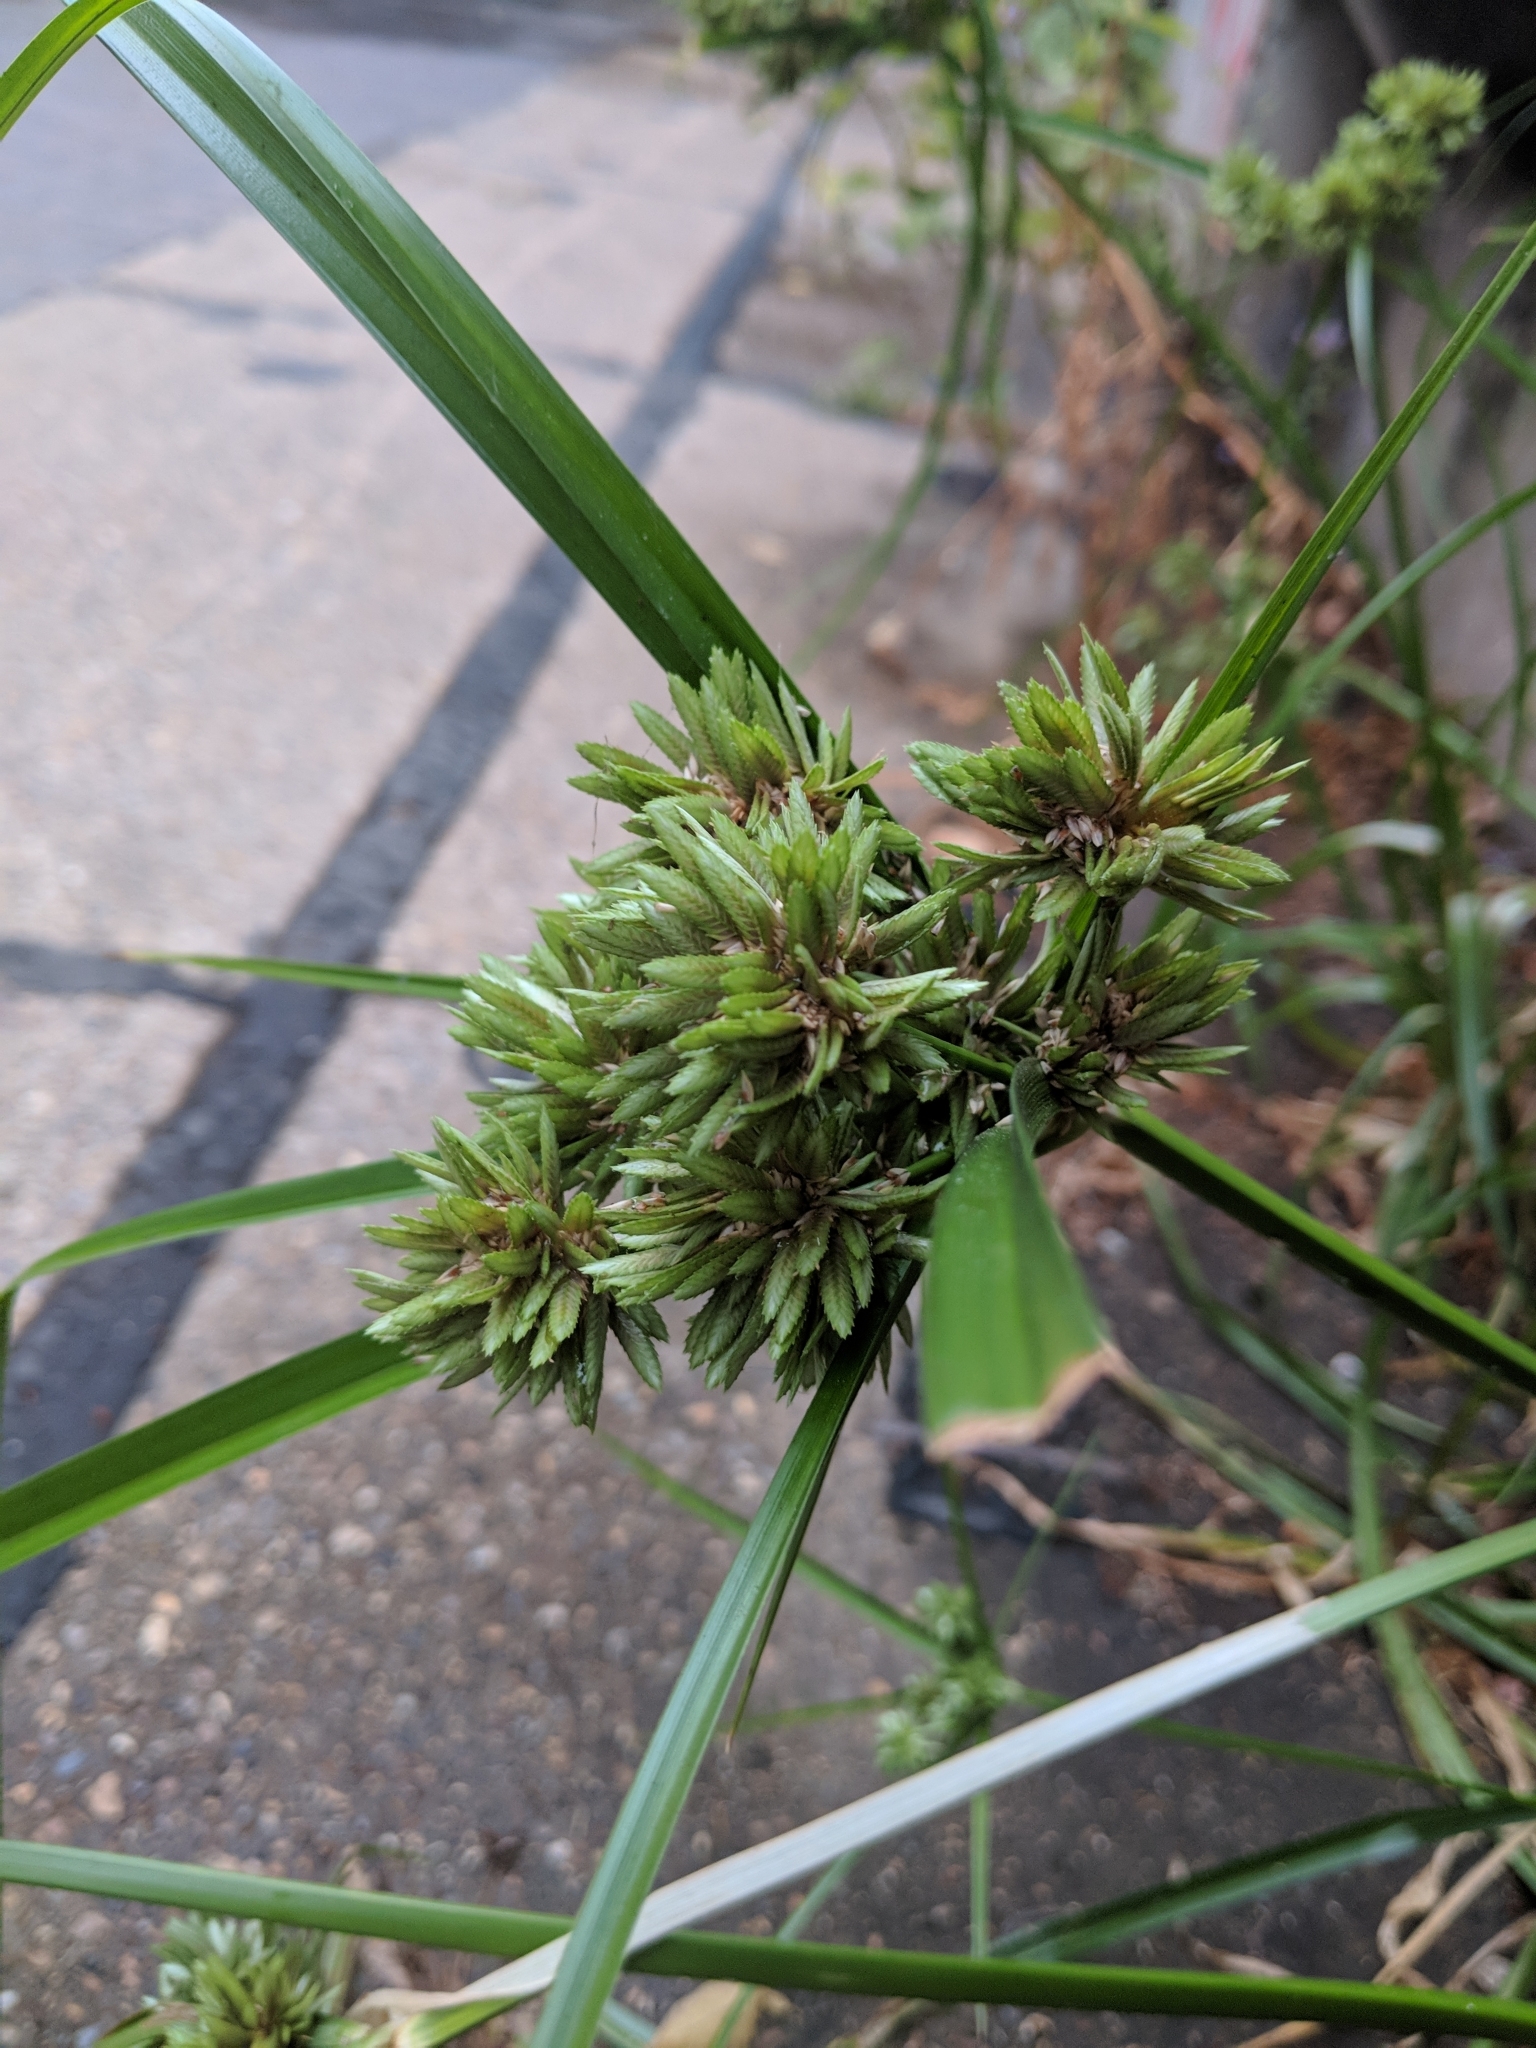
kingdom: Plantae
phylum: Tracheophyta
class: Liliopsida
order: Poales
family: Cyperaceae
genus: Cyperus
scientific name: Cyperus eragrostis
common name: Tall flatsedge
